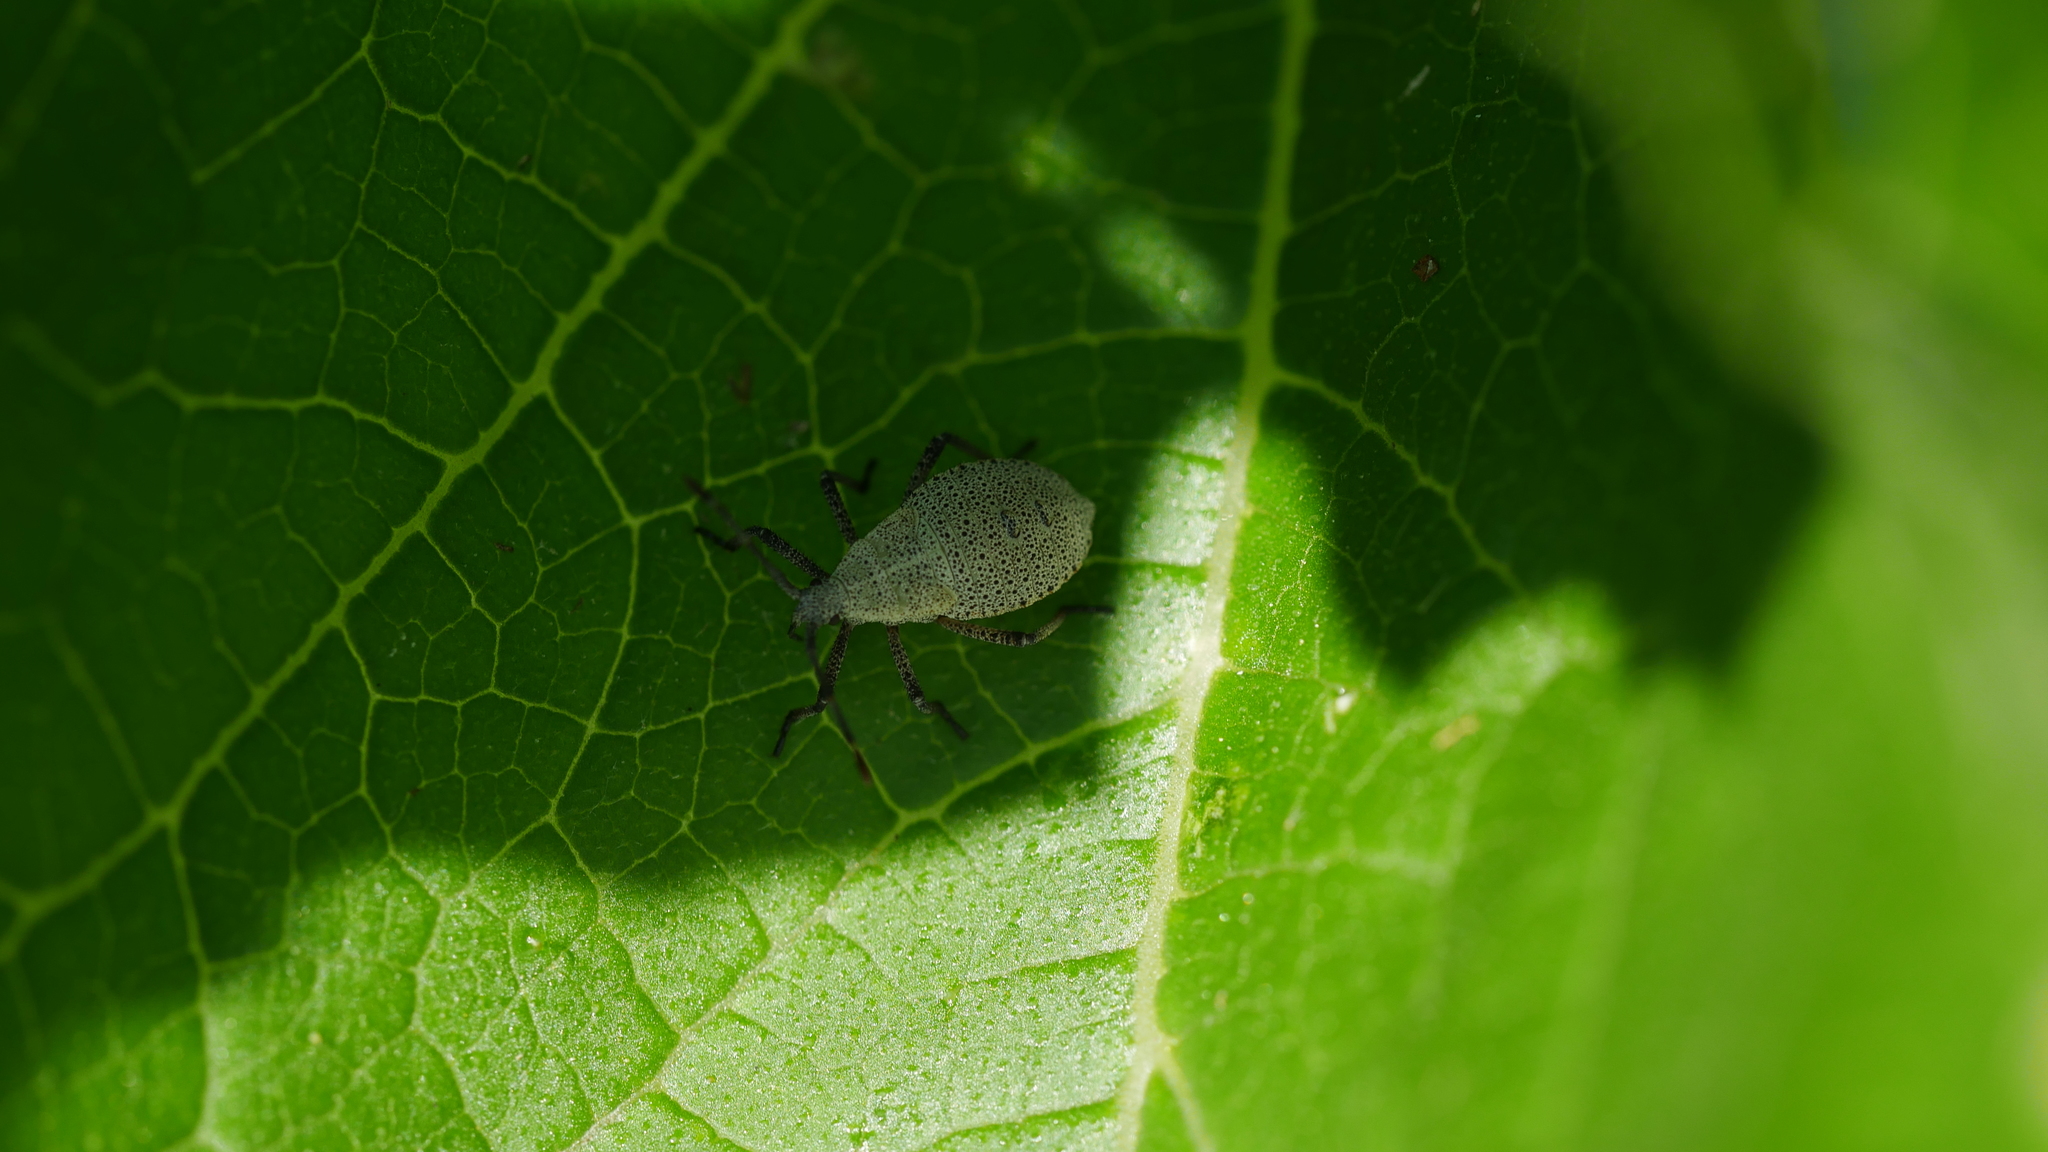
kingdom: Animalia
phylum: Arthropoda
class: Insecta
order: Hemiptera
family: Coreidae
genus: Anasa
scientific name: Anasa tristis
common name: Squash bug
